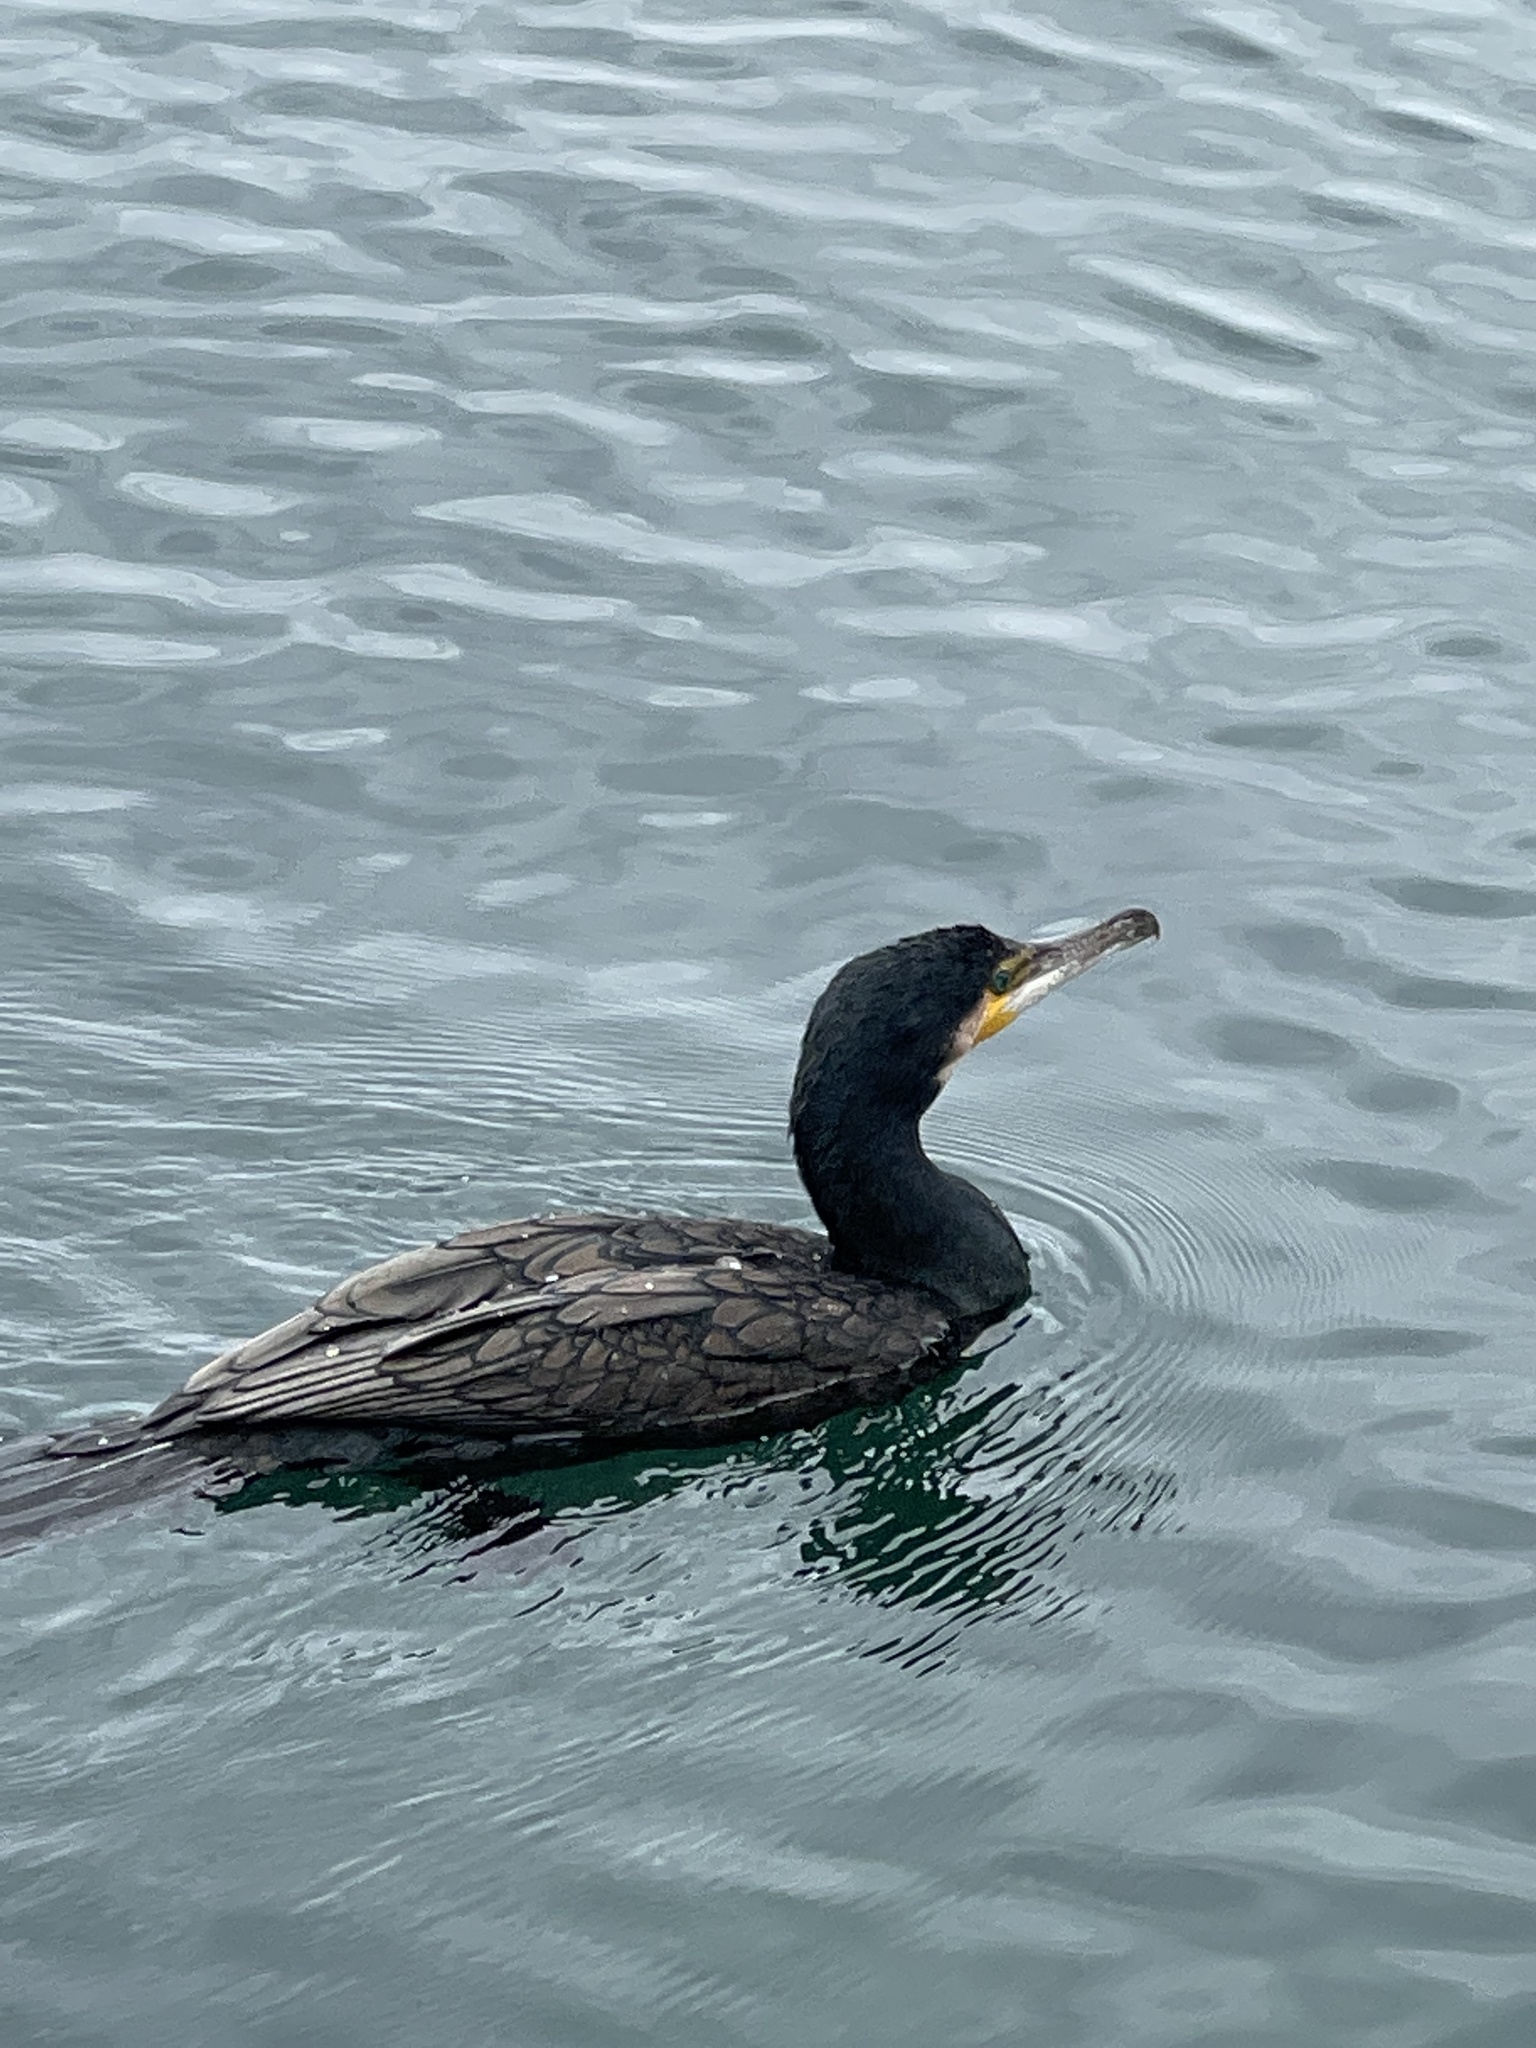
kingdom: Animalia
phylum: Chordata
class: Aves
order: Suliformes
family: Phalacrocoracidae
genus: Phalacrocorax
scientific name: Phalacrocorax carbo
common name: Great cormorant
